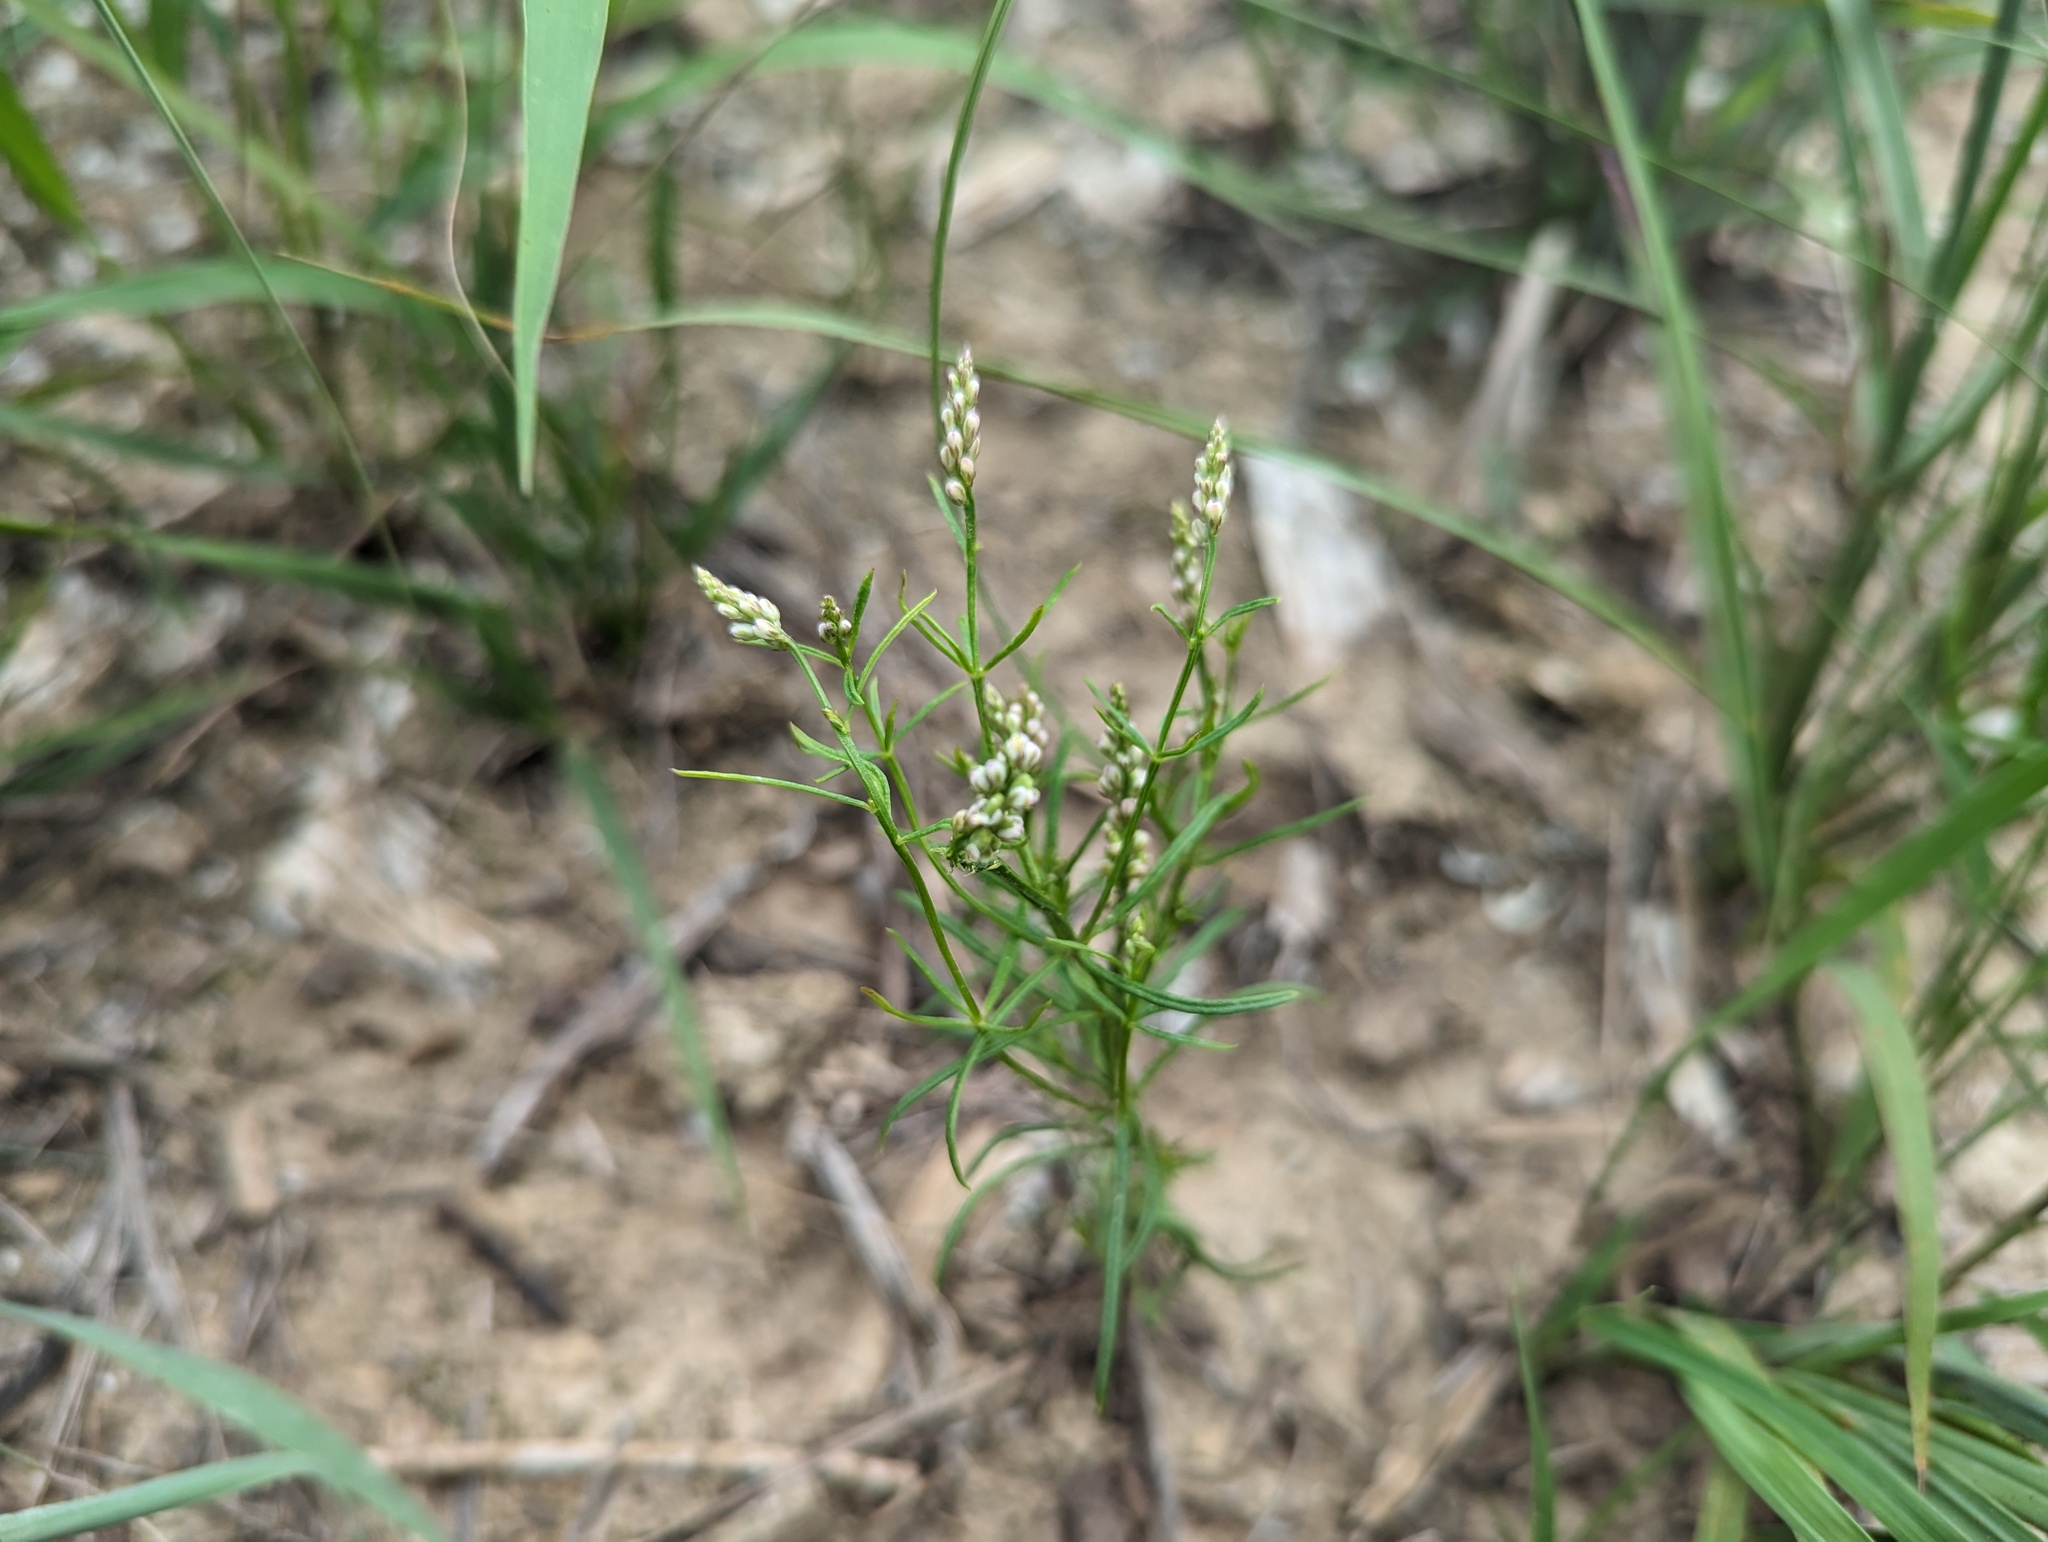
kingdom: Plantae
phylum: Tracheophyta
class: Magnoliopsida
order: Fabales
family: Polygalaceae
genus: Polygala
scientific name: Polygala verticillata
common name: Whorl milkwort
